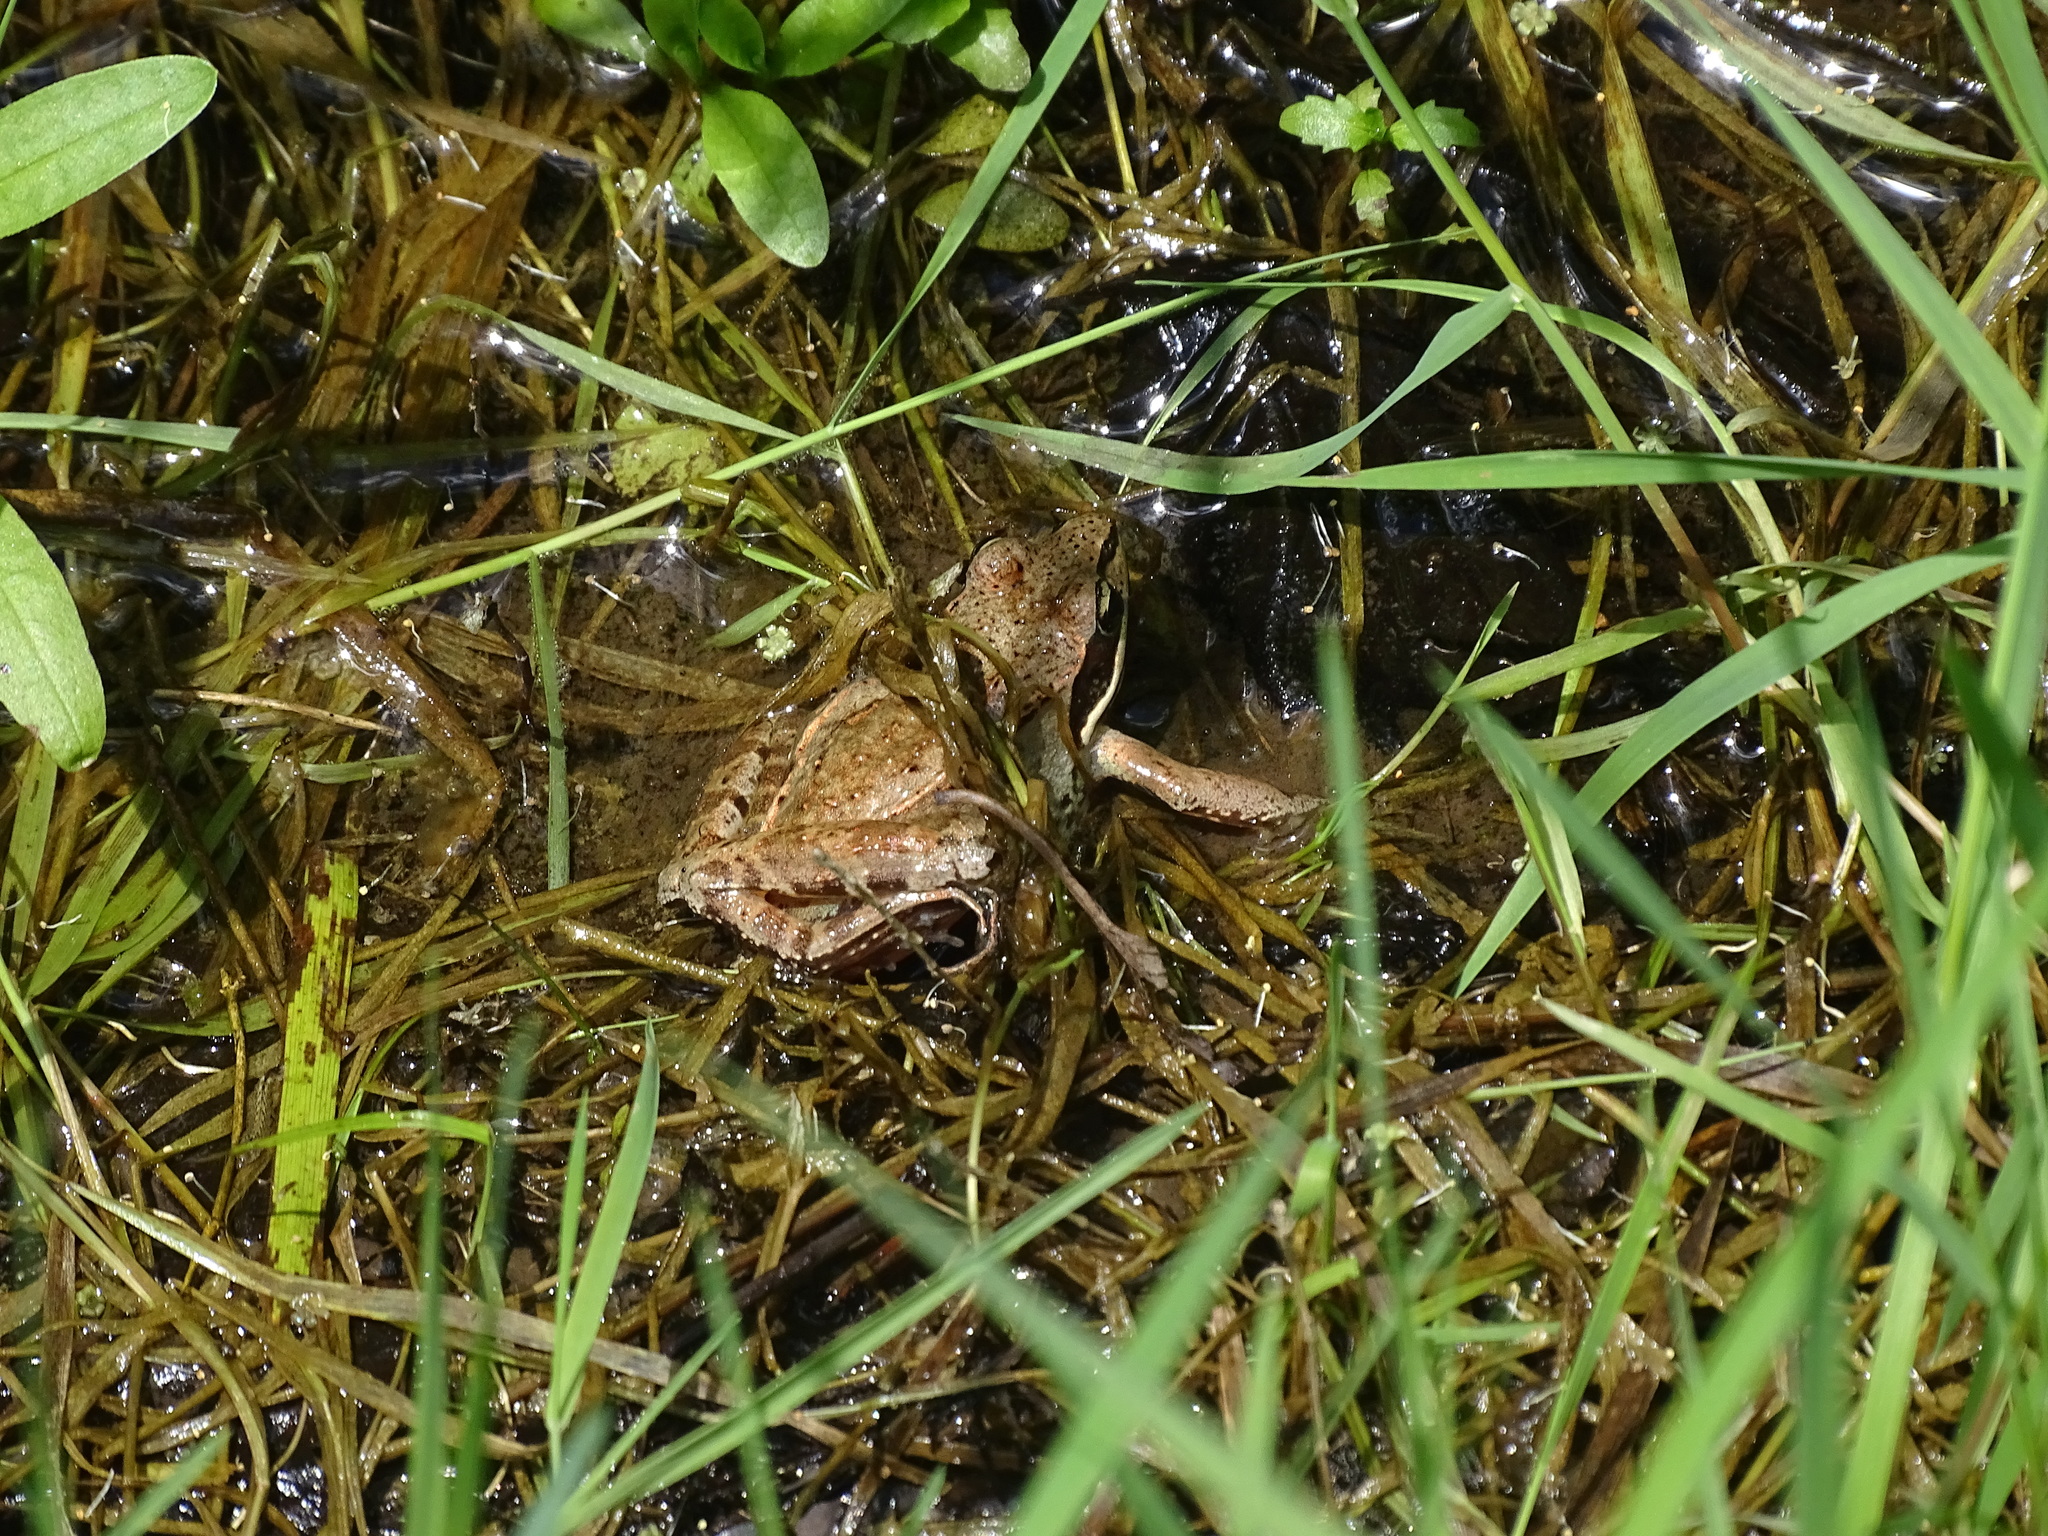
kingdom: Animalia
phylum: Chordata
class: Amphibia
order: Anura
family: Ranidae
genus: Lithobates
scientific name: Lithobates sylvaticus
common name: Wood frog
